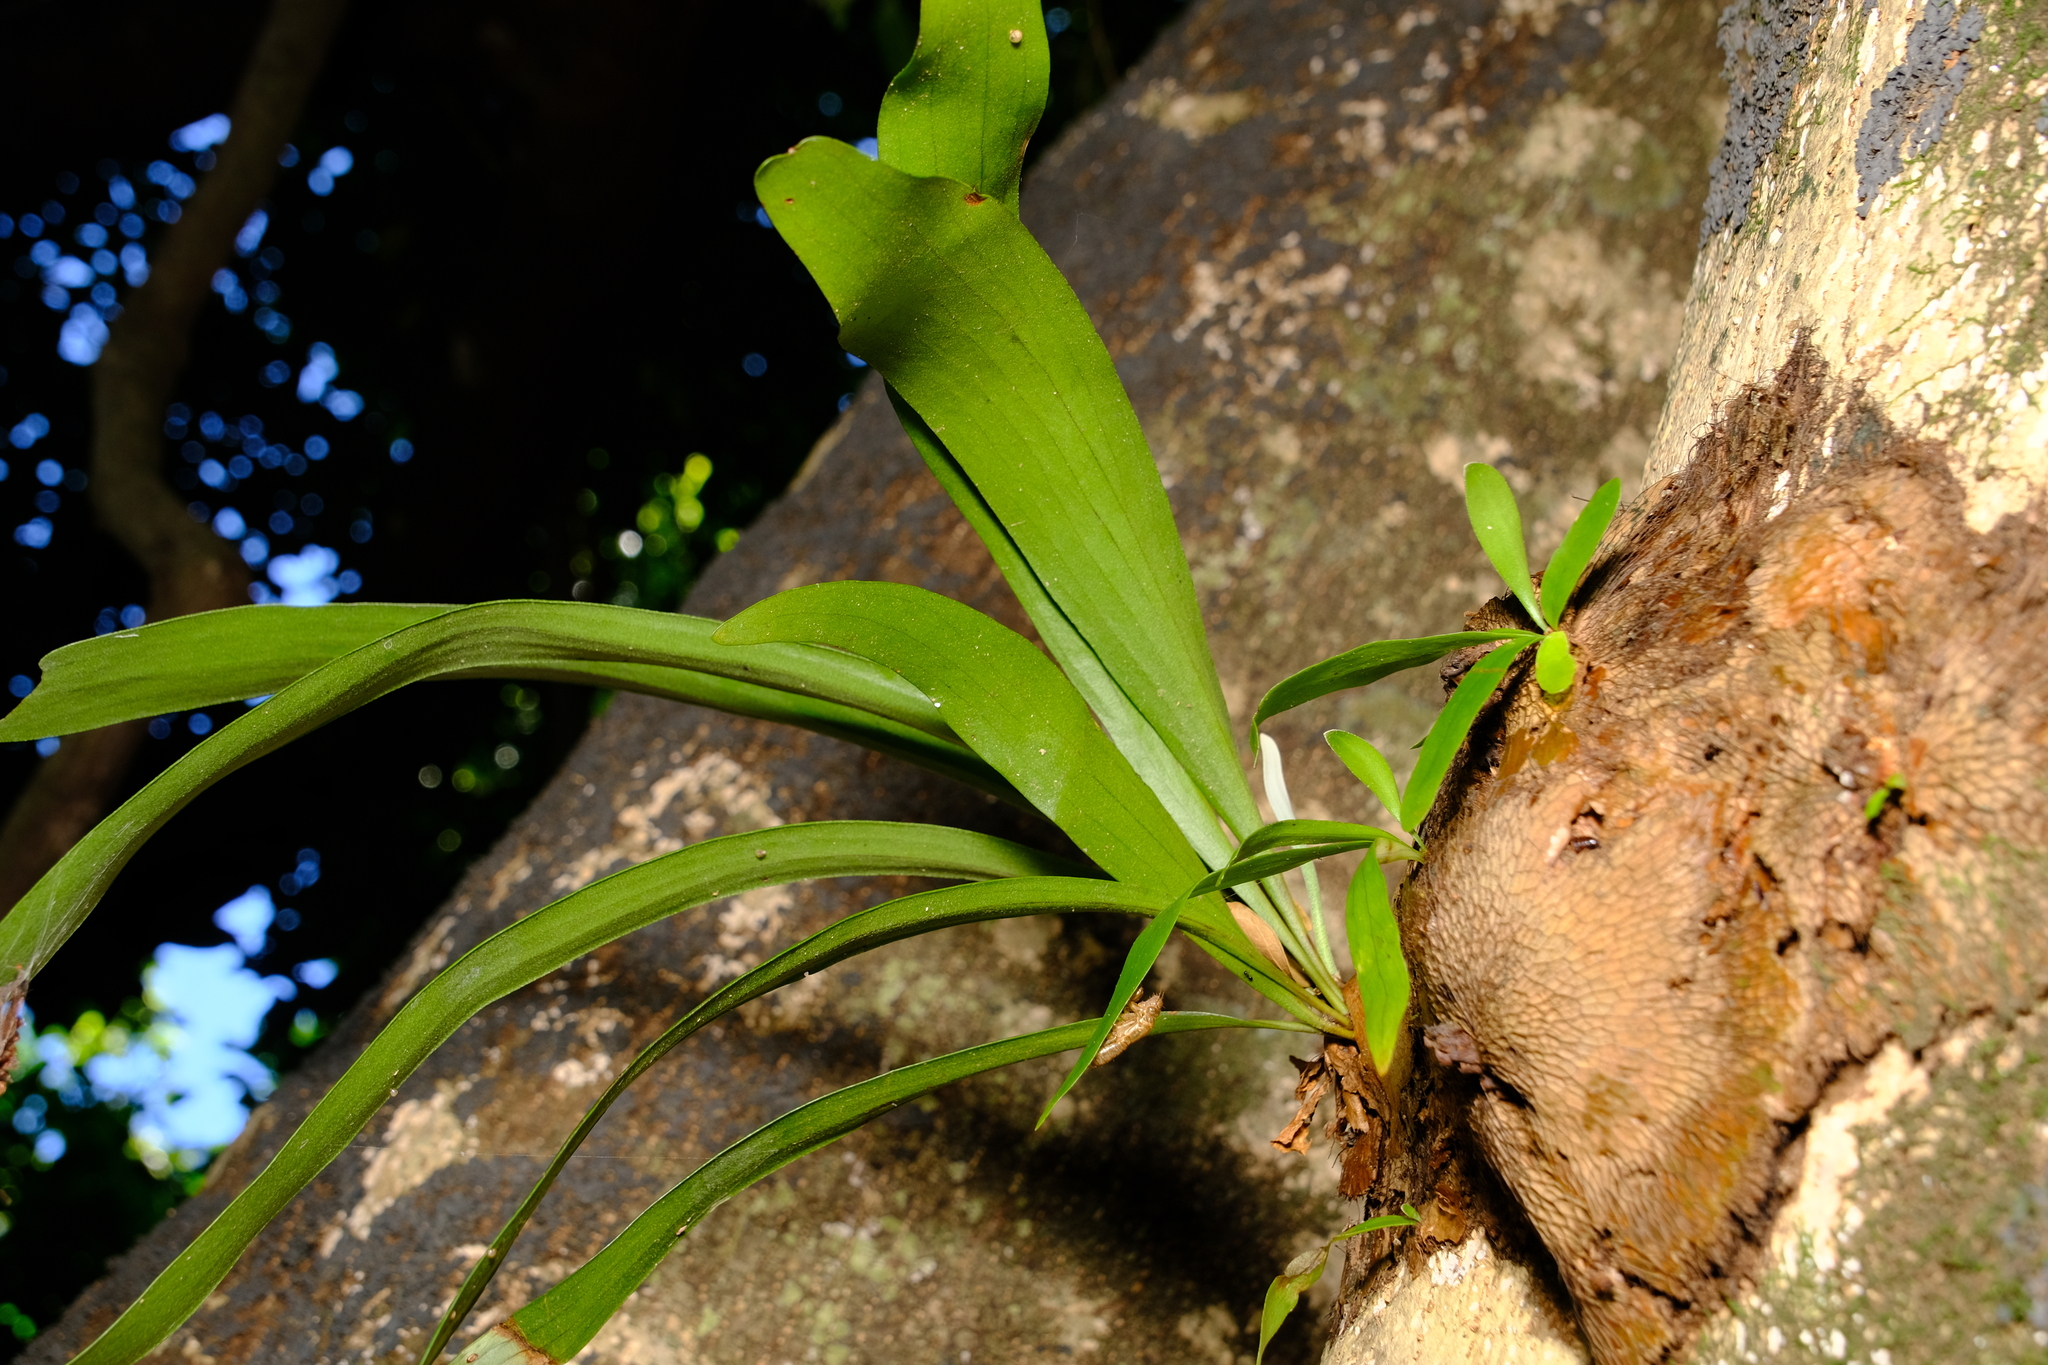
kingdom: Plantae
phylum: Tracheophyta
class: Polypodiopsida
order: Polypodiales
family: Polypodiaceae
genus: Platycerium
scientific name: Platycerium bifurcatum
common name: Elkhorn fern
